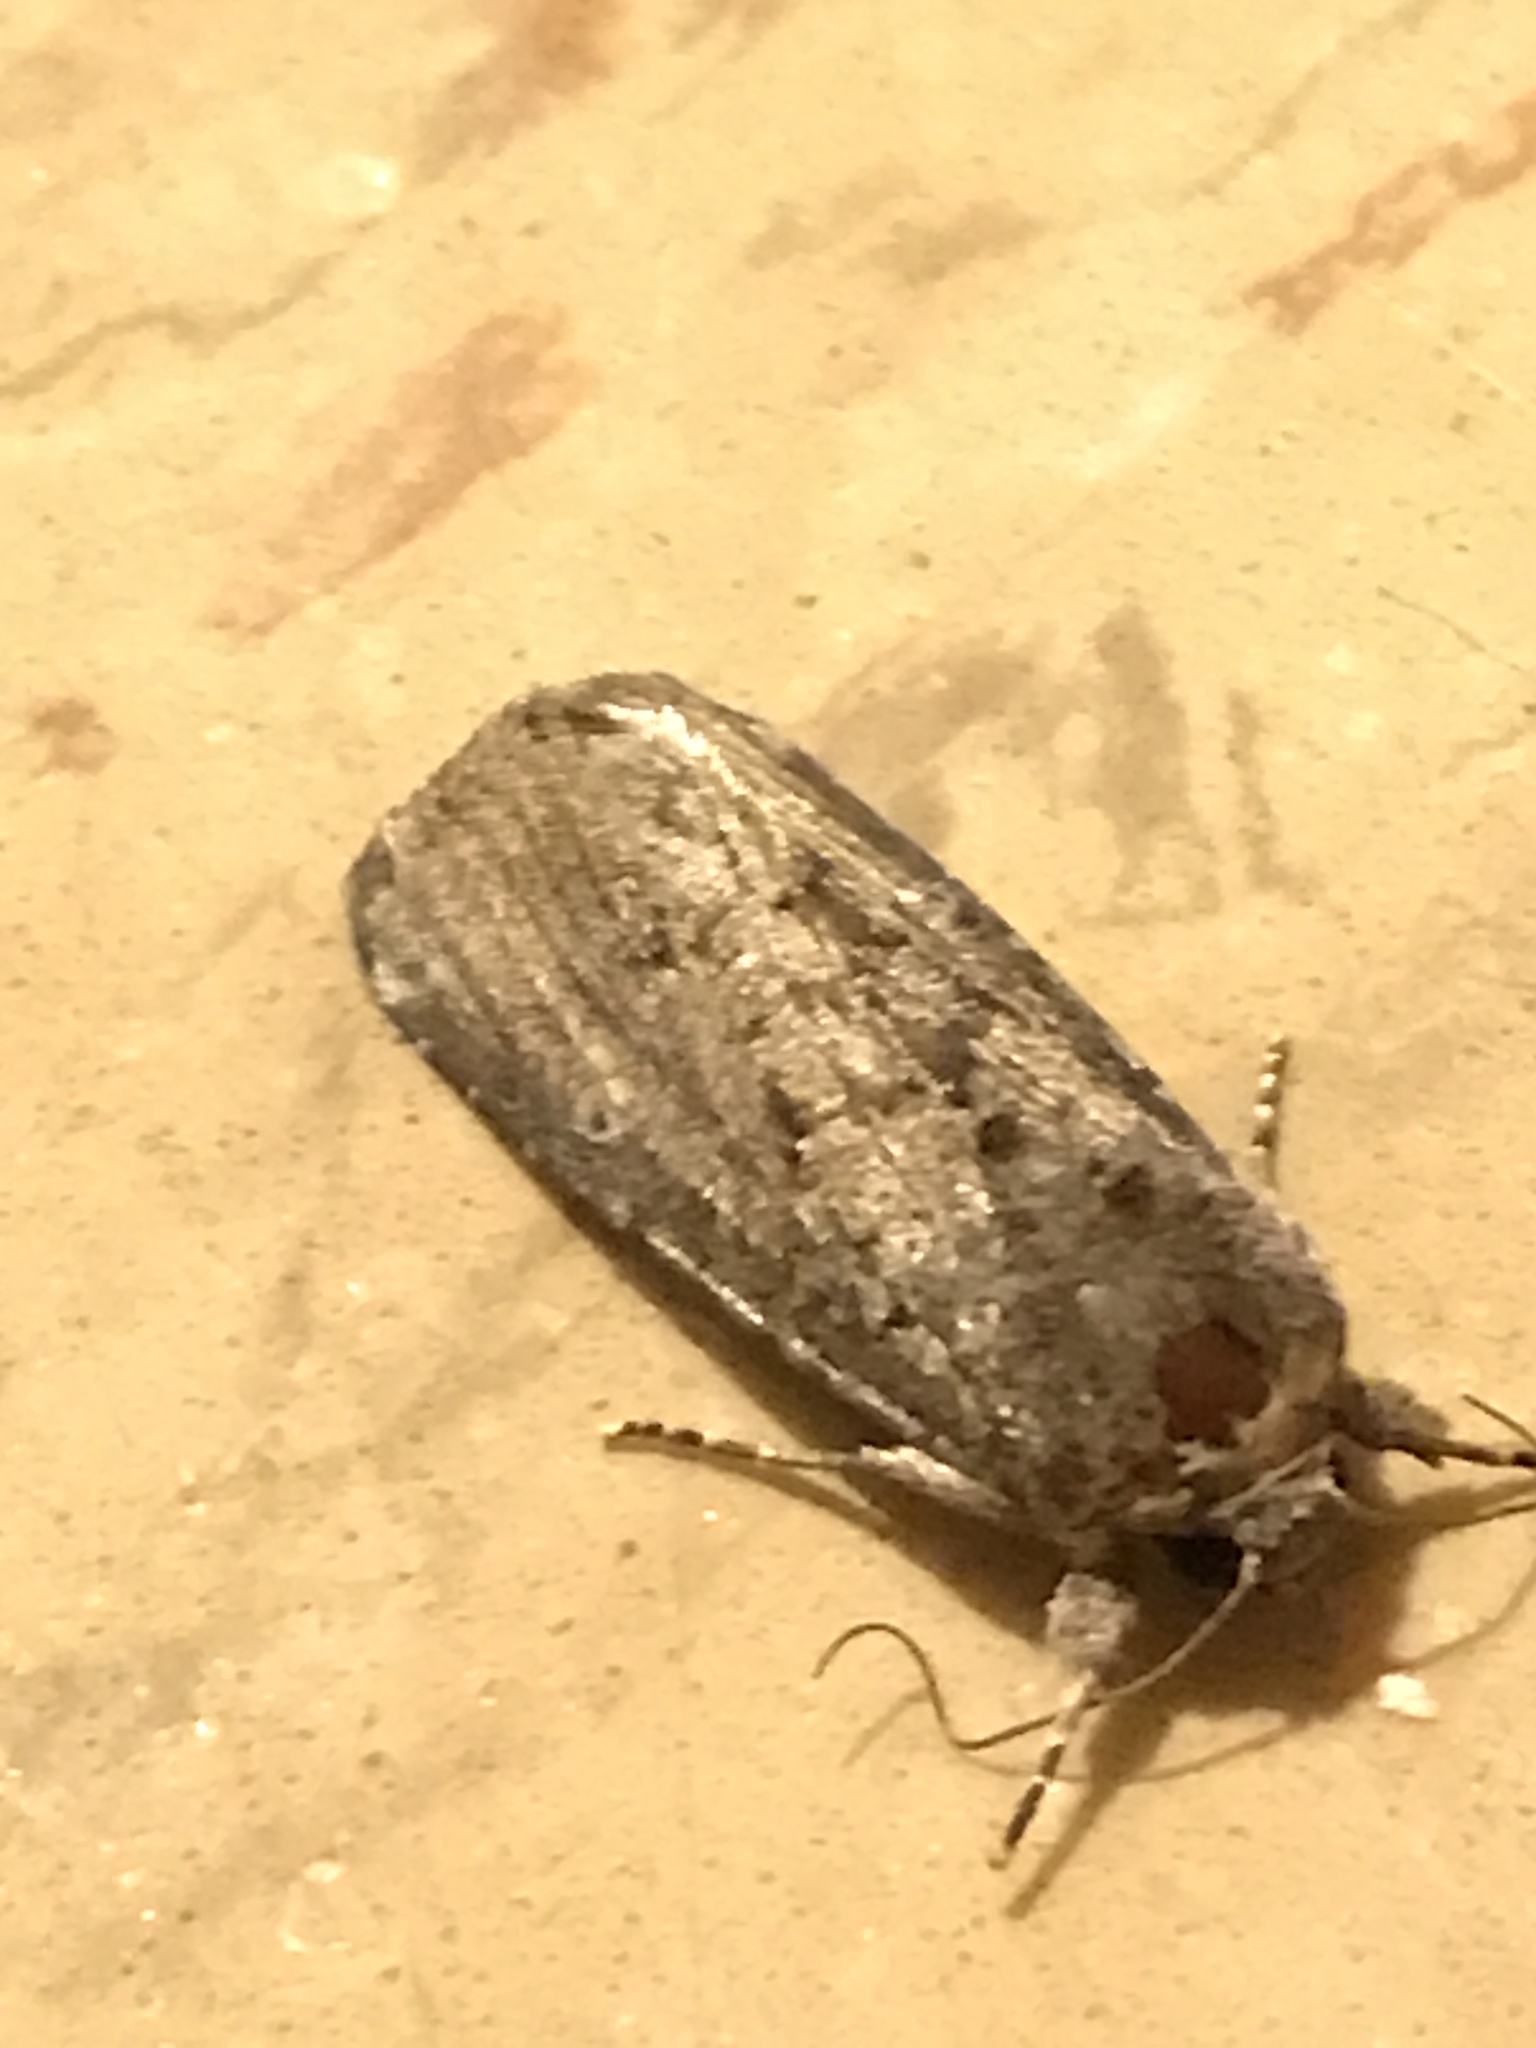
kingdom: Animalia
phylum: Arthropoda
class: Insecta
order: Lepidoptera
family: Noctuidae
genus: Spodoptera
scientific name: Spodoptera frugiperda
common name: Fall armyworm
